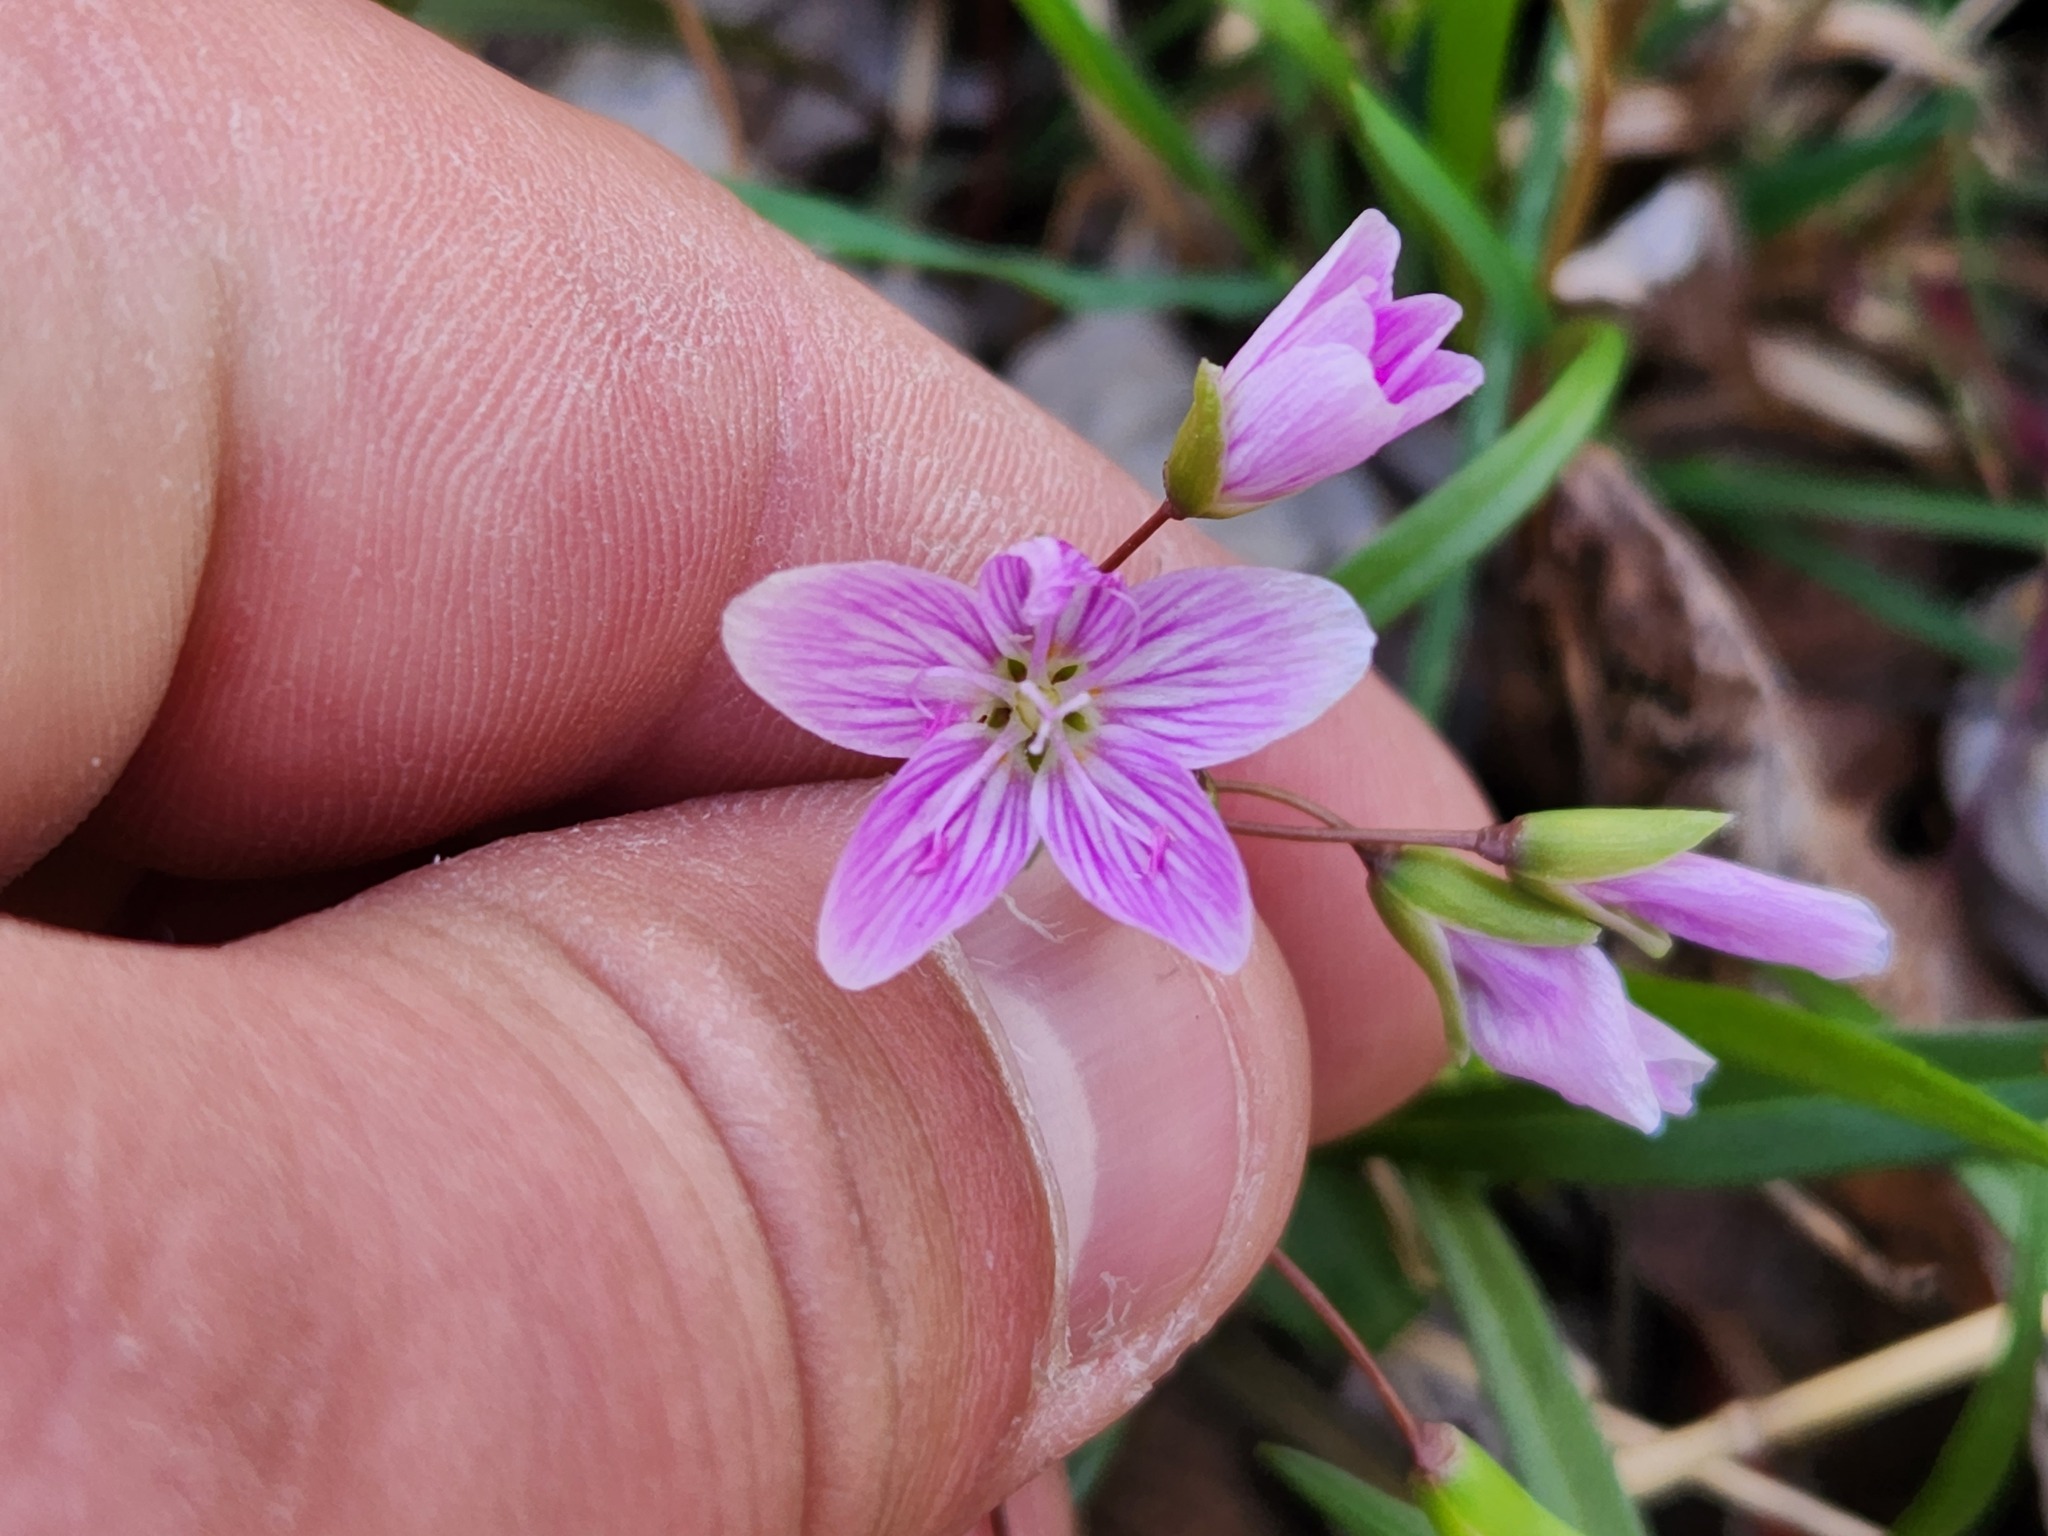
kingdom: Plantae
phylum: Tracheophyta
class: Magnoliopsida
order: Caryophyllales
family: Montiaceae
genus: Claytonia
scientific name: Claytonia virginica
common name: Virginia springbeauty
